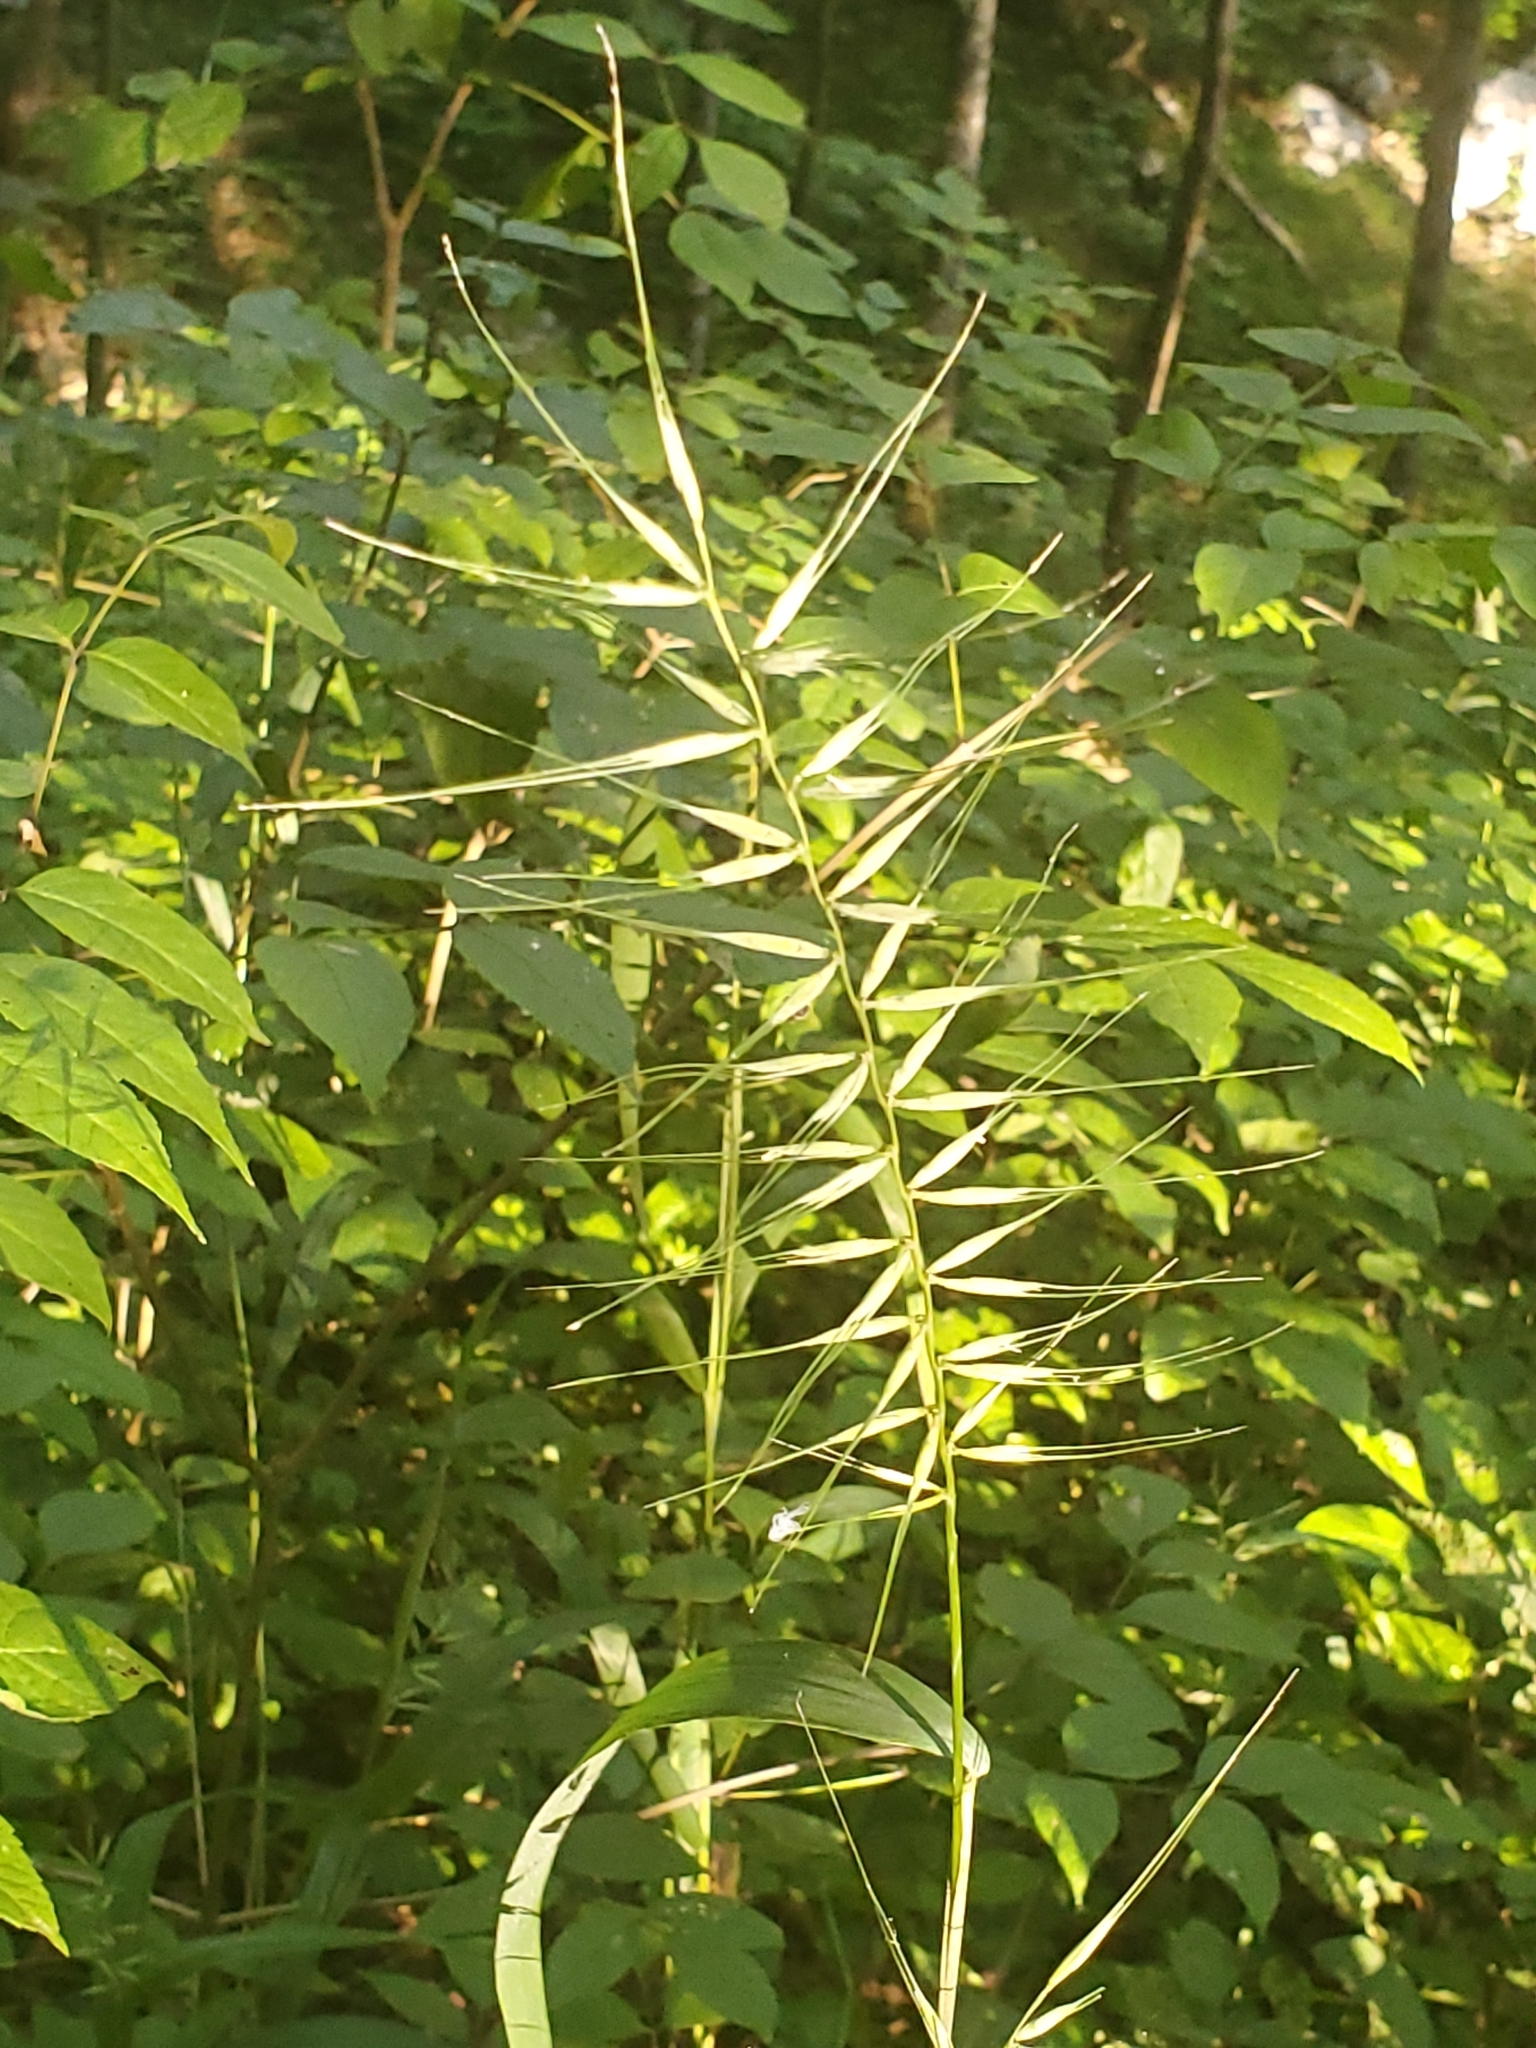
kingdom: Plantae
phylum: Tracheophyta
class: Liliopsida
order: Poales
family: Poaceae
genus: Elymus
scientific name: Elymus hystrix
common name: Bottlebrush grass
